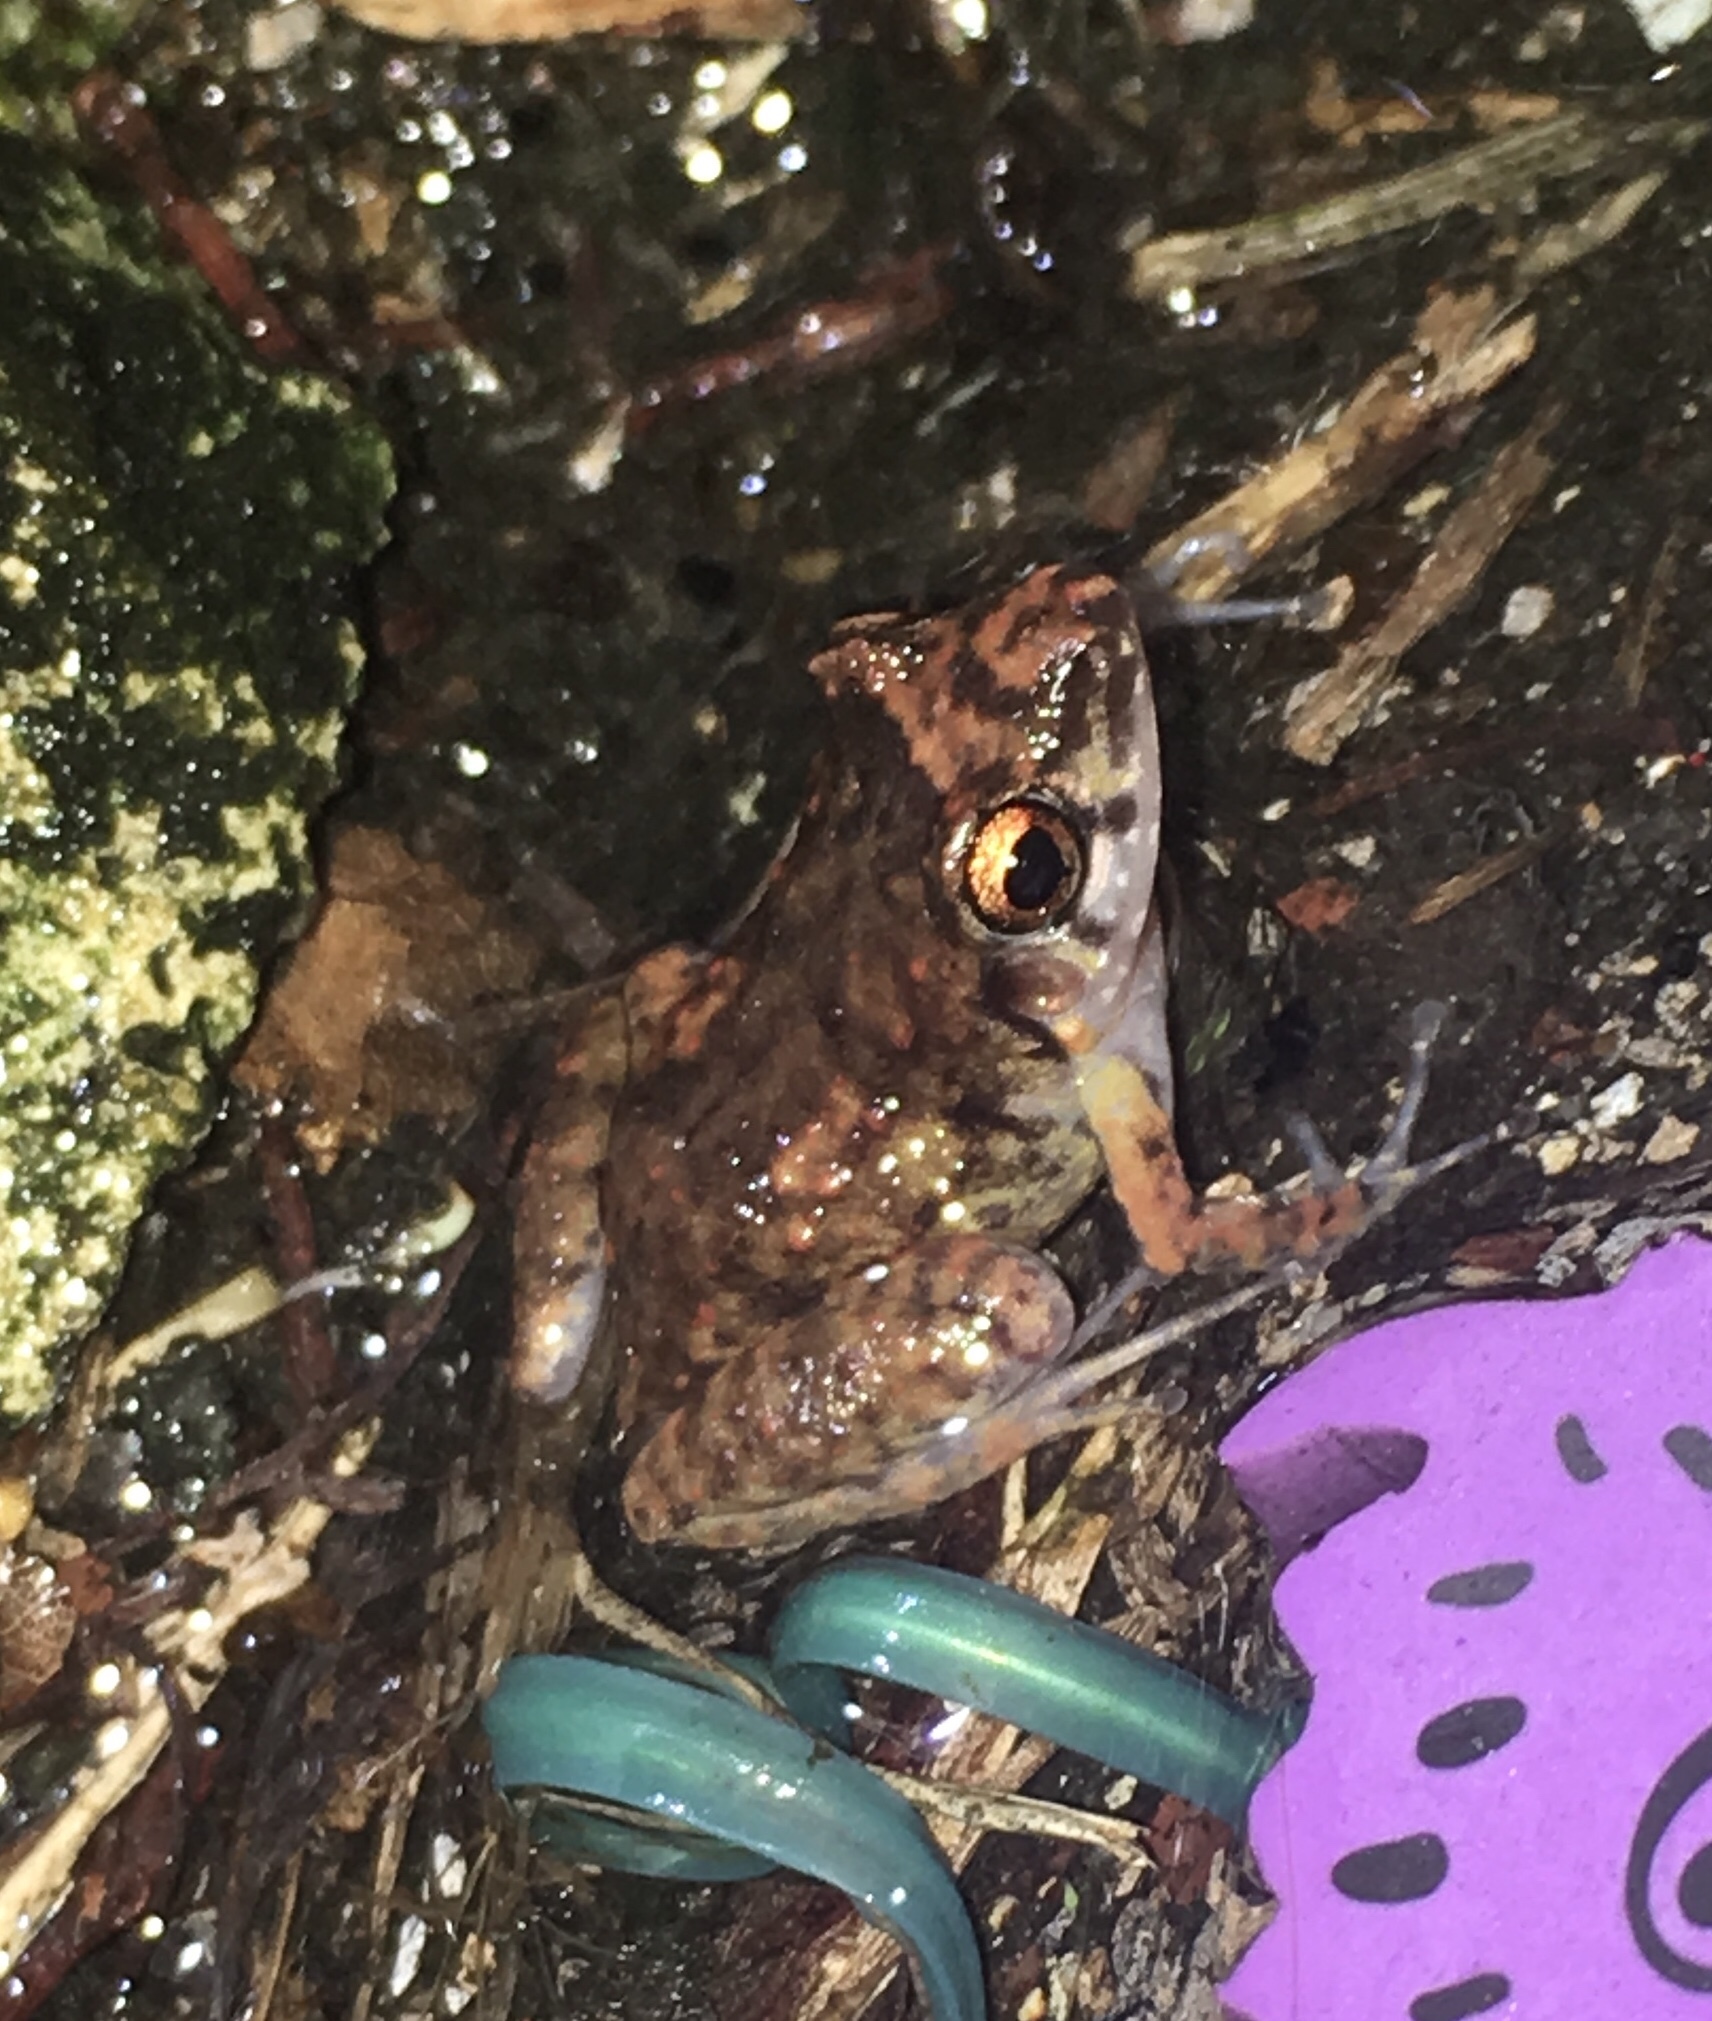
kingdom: Animalia
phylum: Chordata
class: Amphibia
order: Anura
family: Eleutherodactylidae
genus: Eleutherodactylus
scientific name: Eleutherodactylus planirostris
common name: Greenhouse frog
